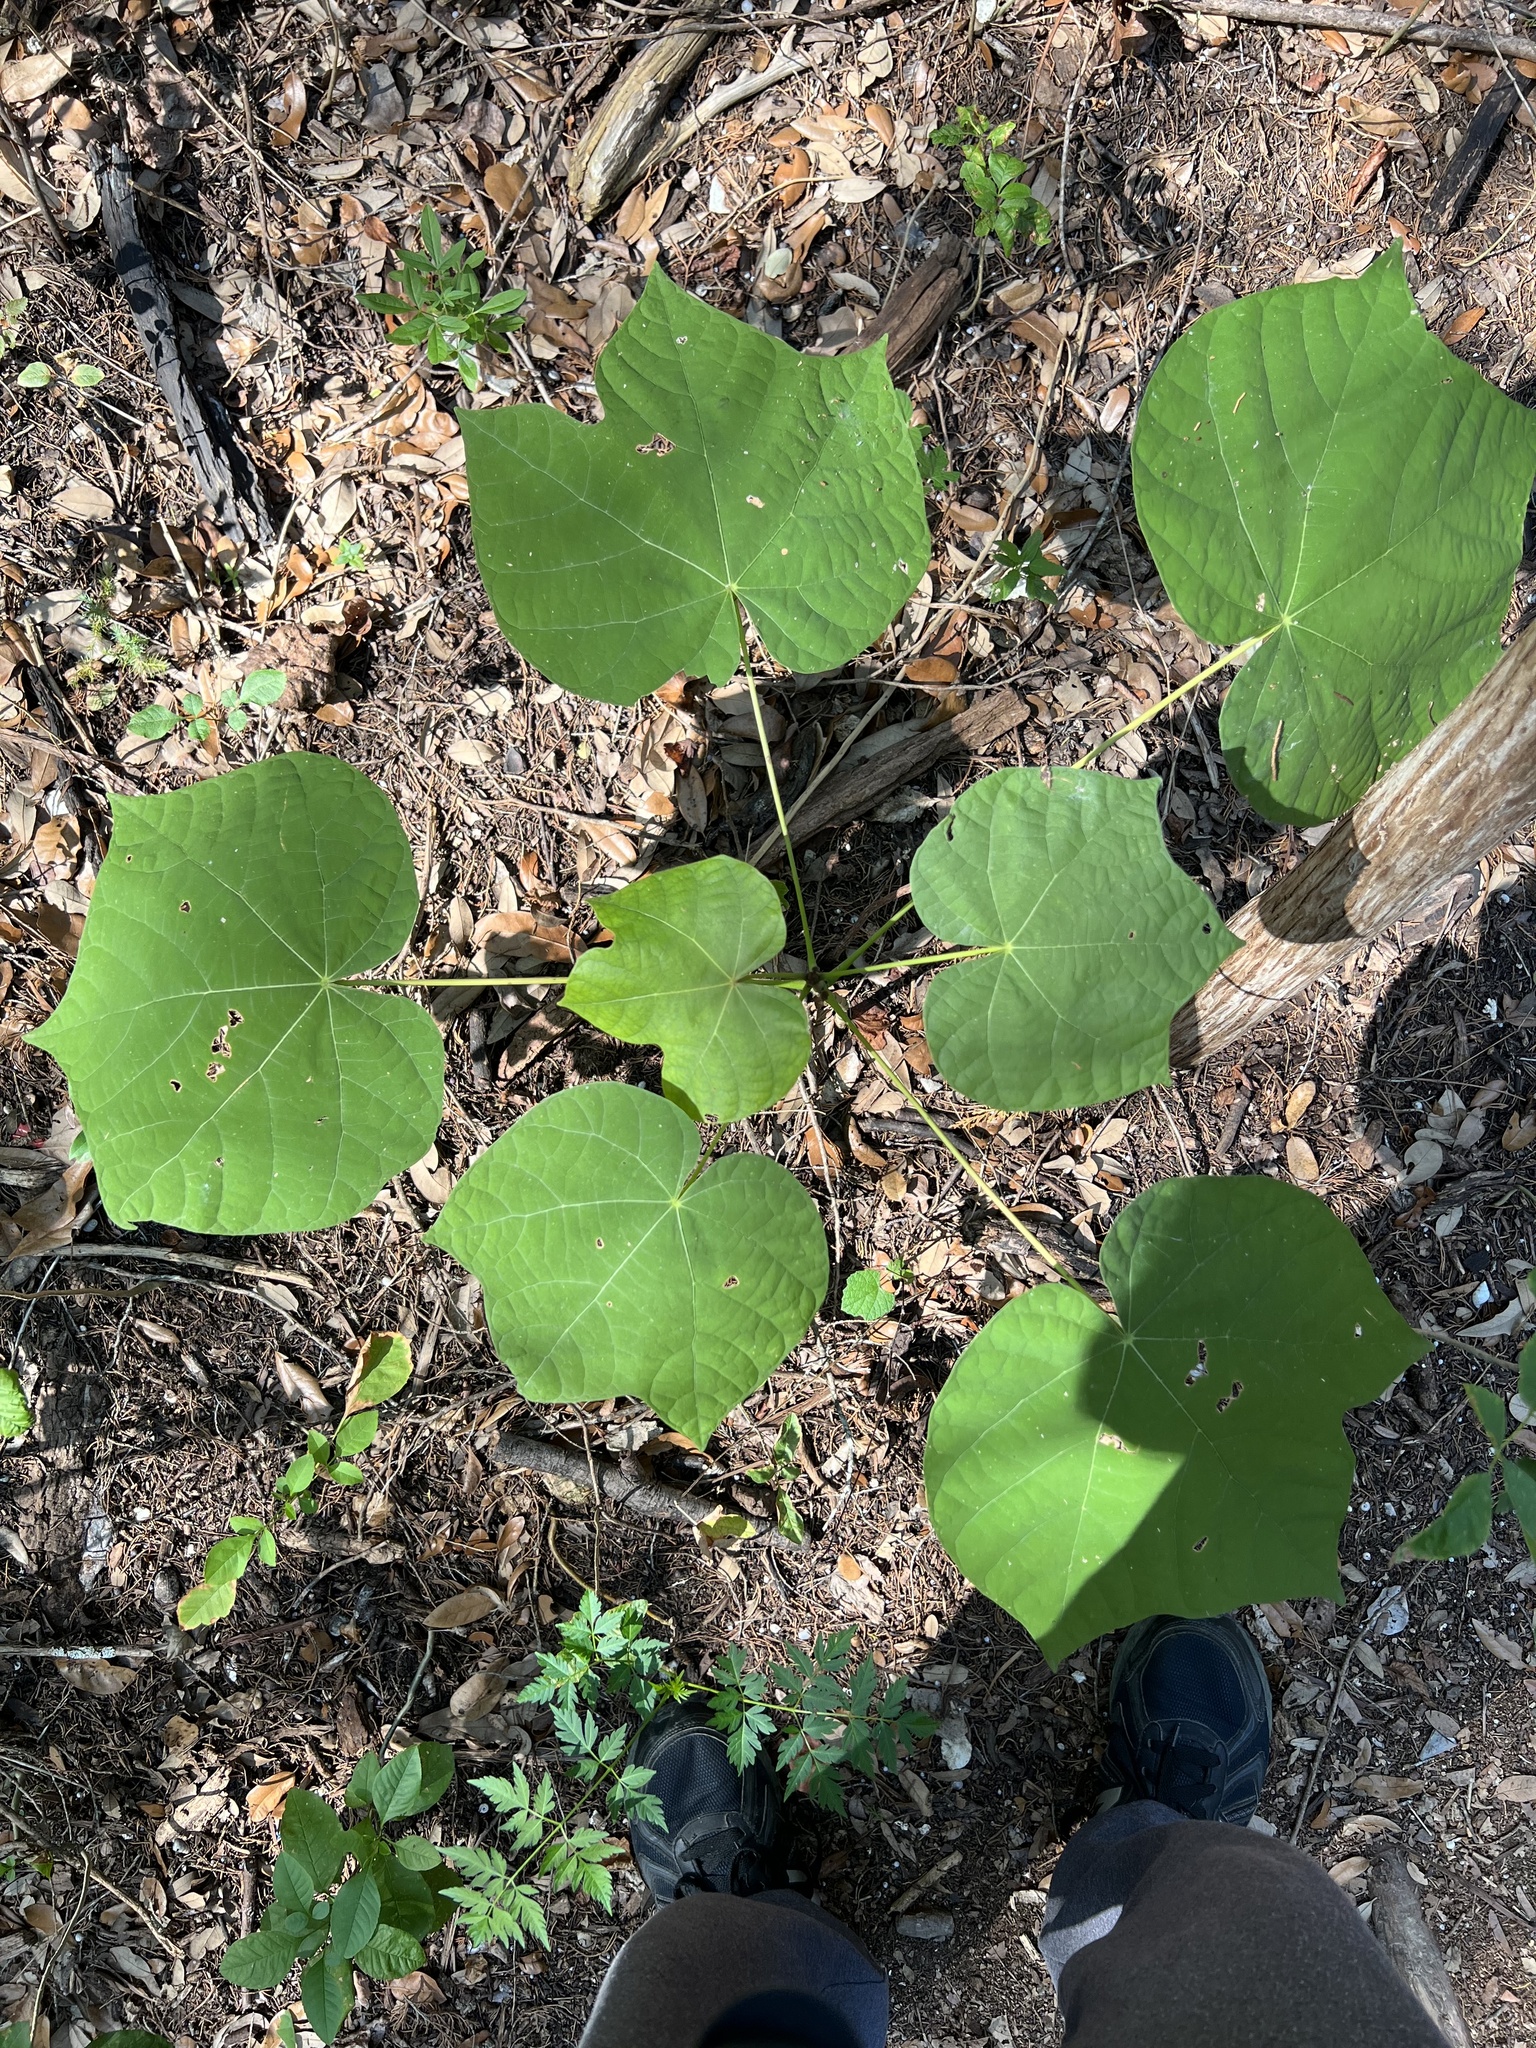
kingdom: Plantae
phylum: Tracheophyta
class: Magnoliopsida
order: Malvales
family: Malvaceae
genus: Firmiana
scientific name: Firmiana simplex
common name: Chinese parasoltree
